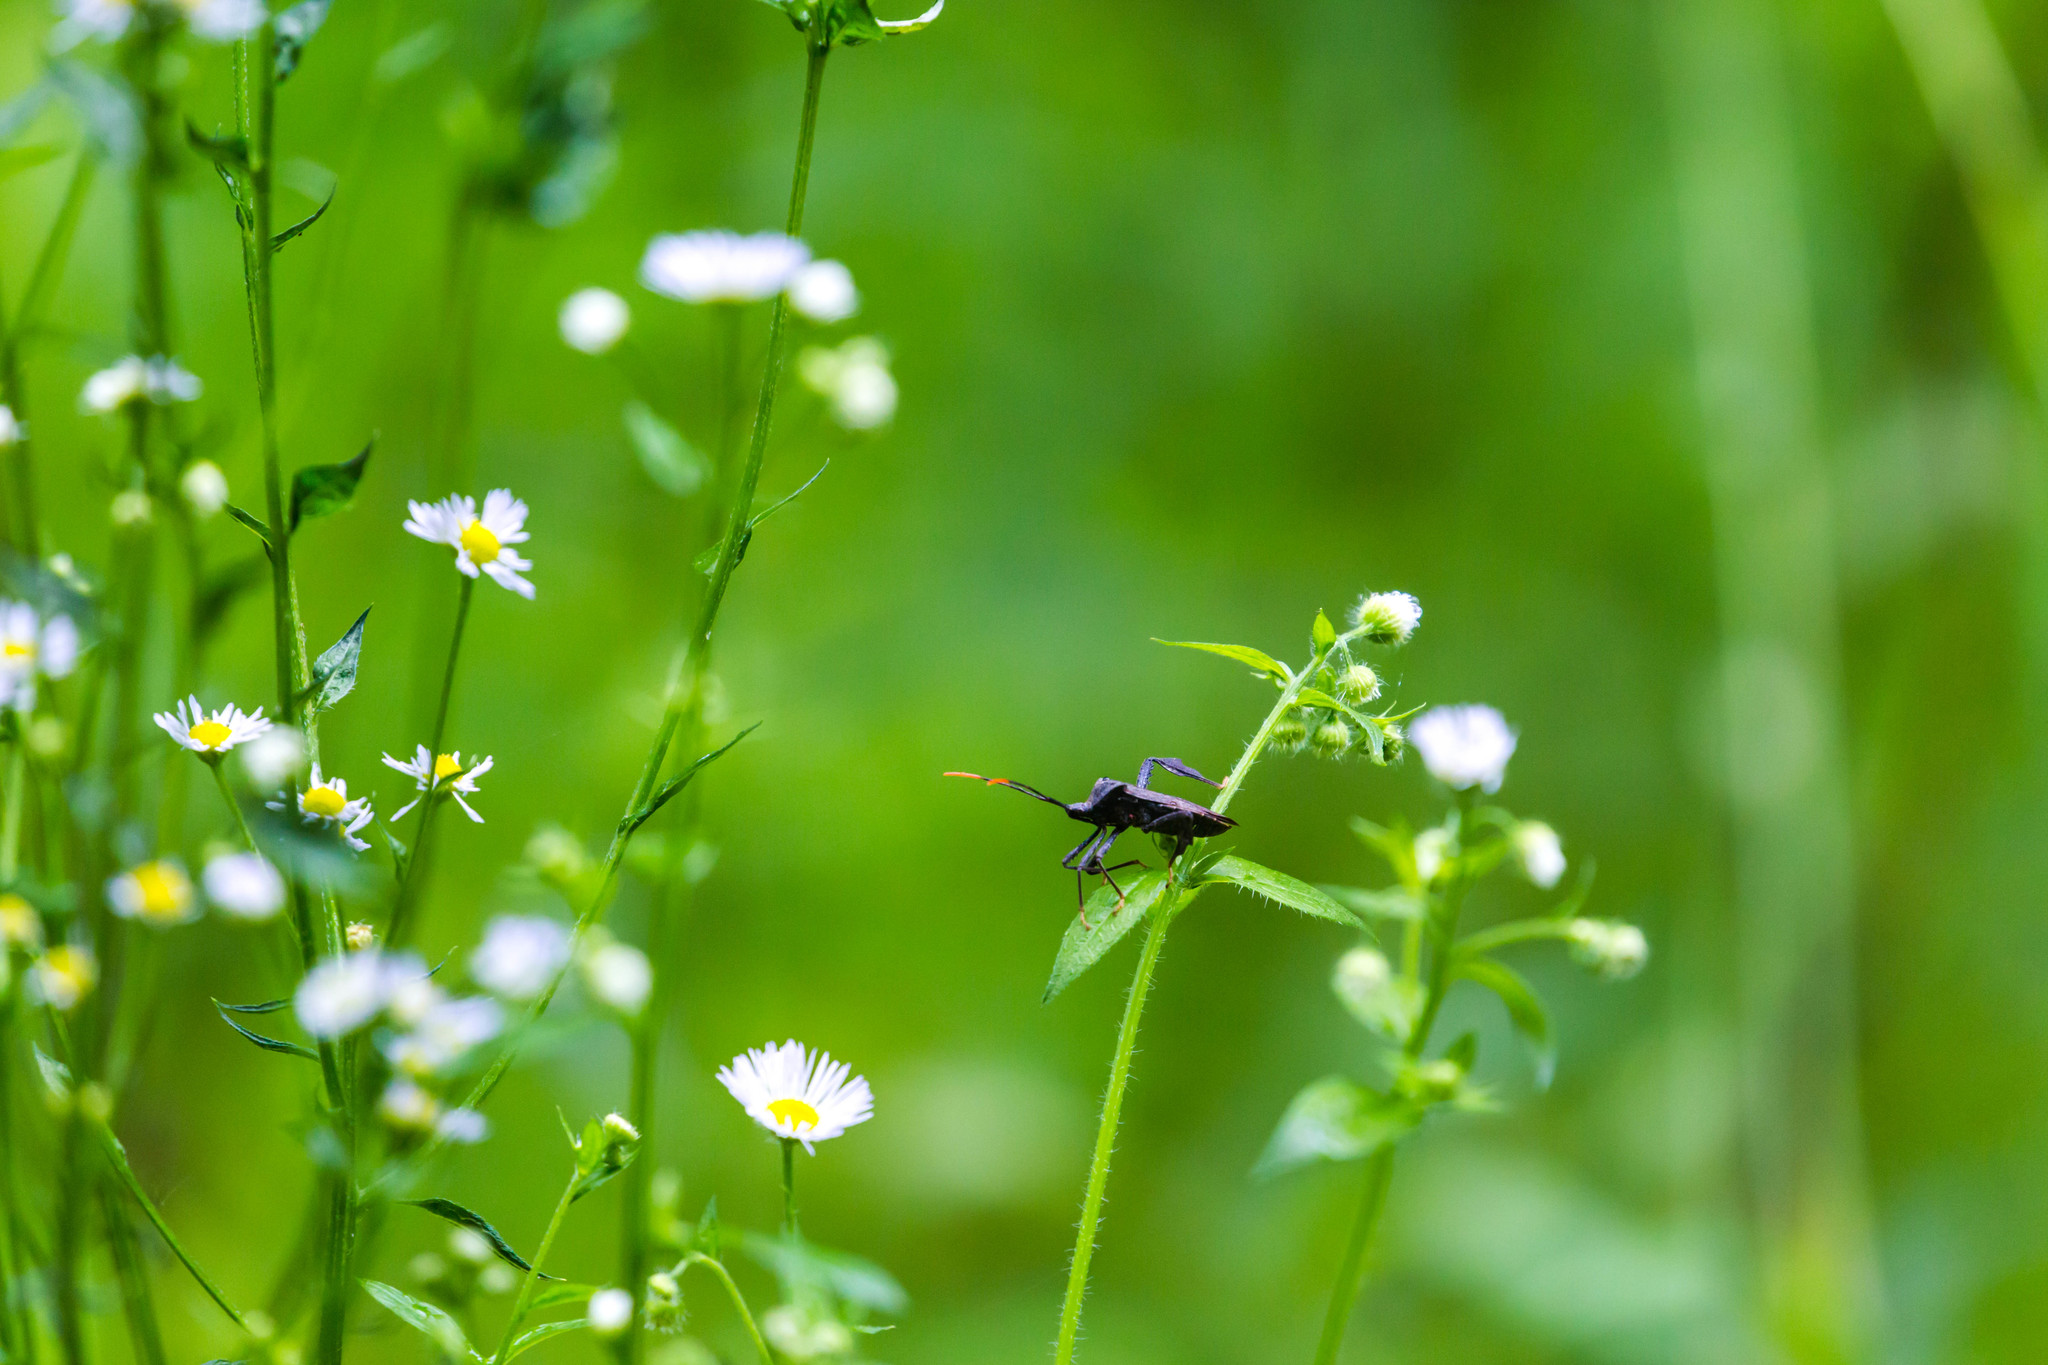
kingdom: Animalia
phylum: Arthropoda
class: Insecta
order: Hemiptera
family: Coreidae
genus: Acanthocephala
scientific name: Acanthocephala terminalis
